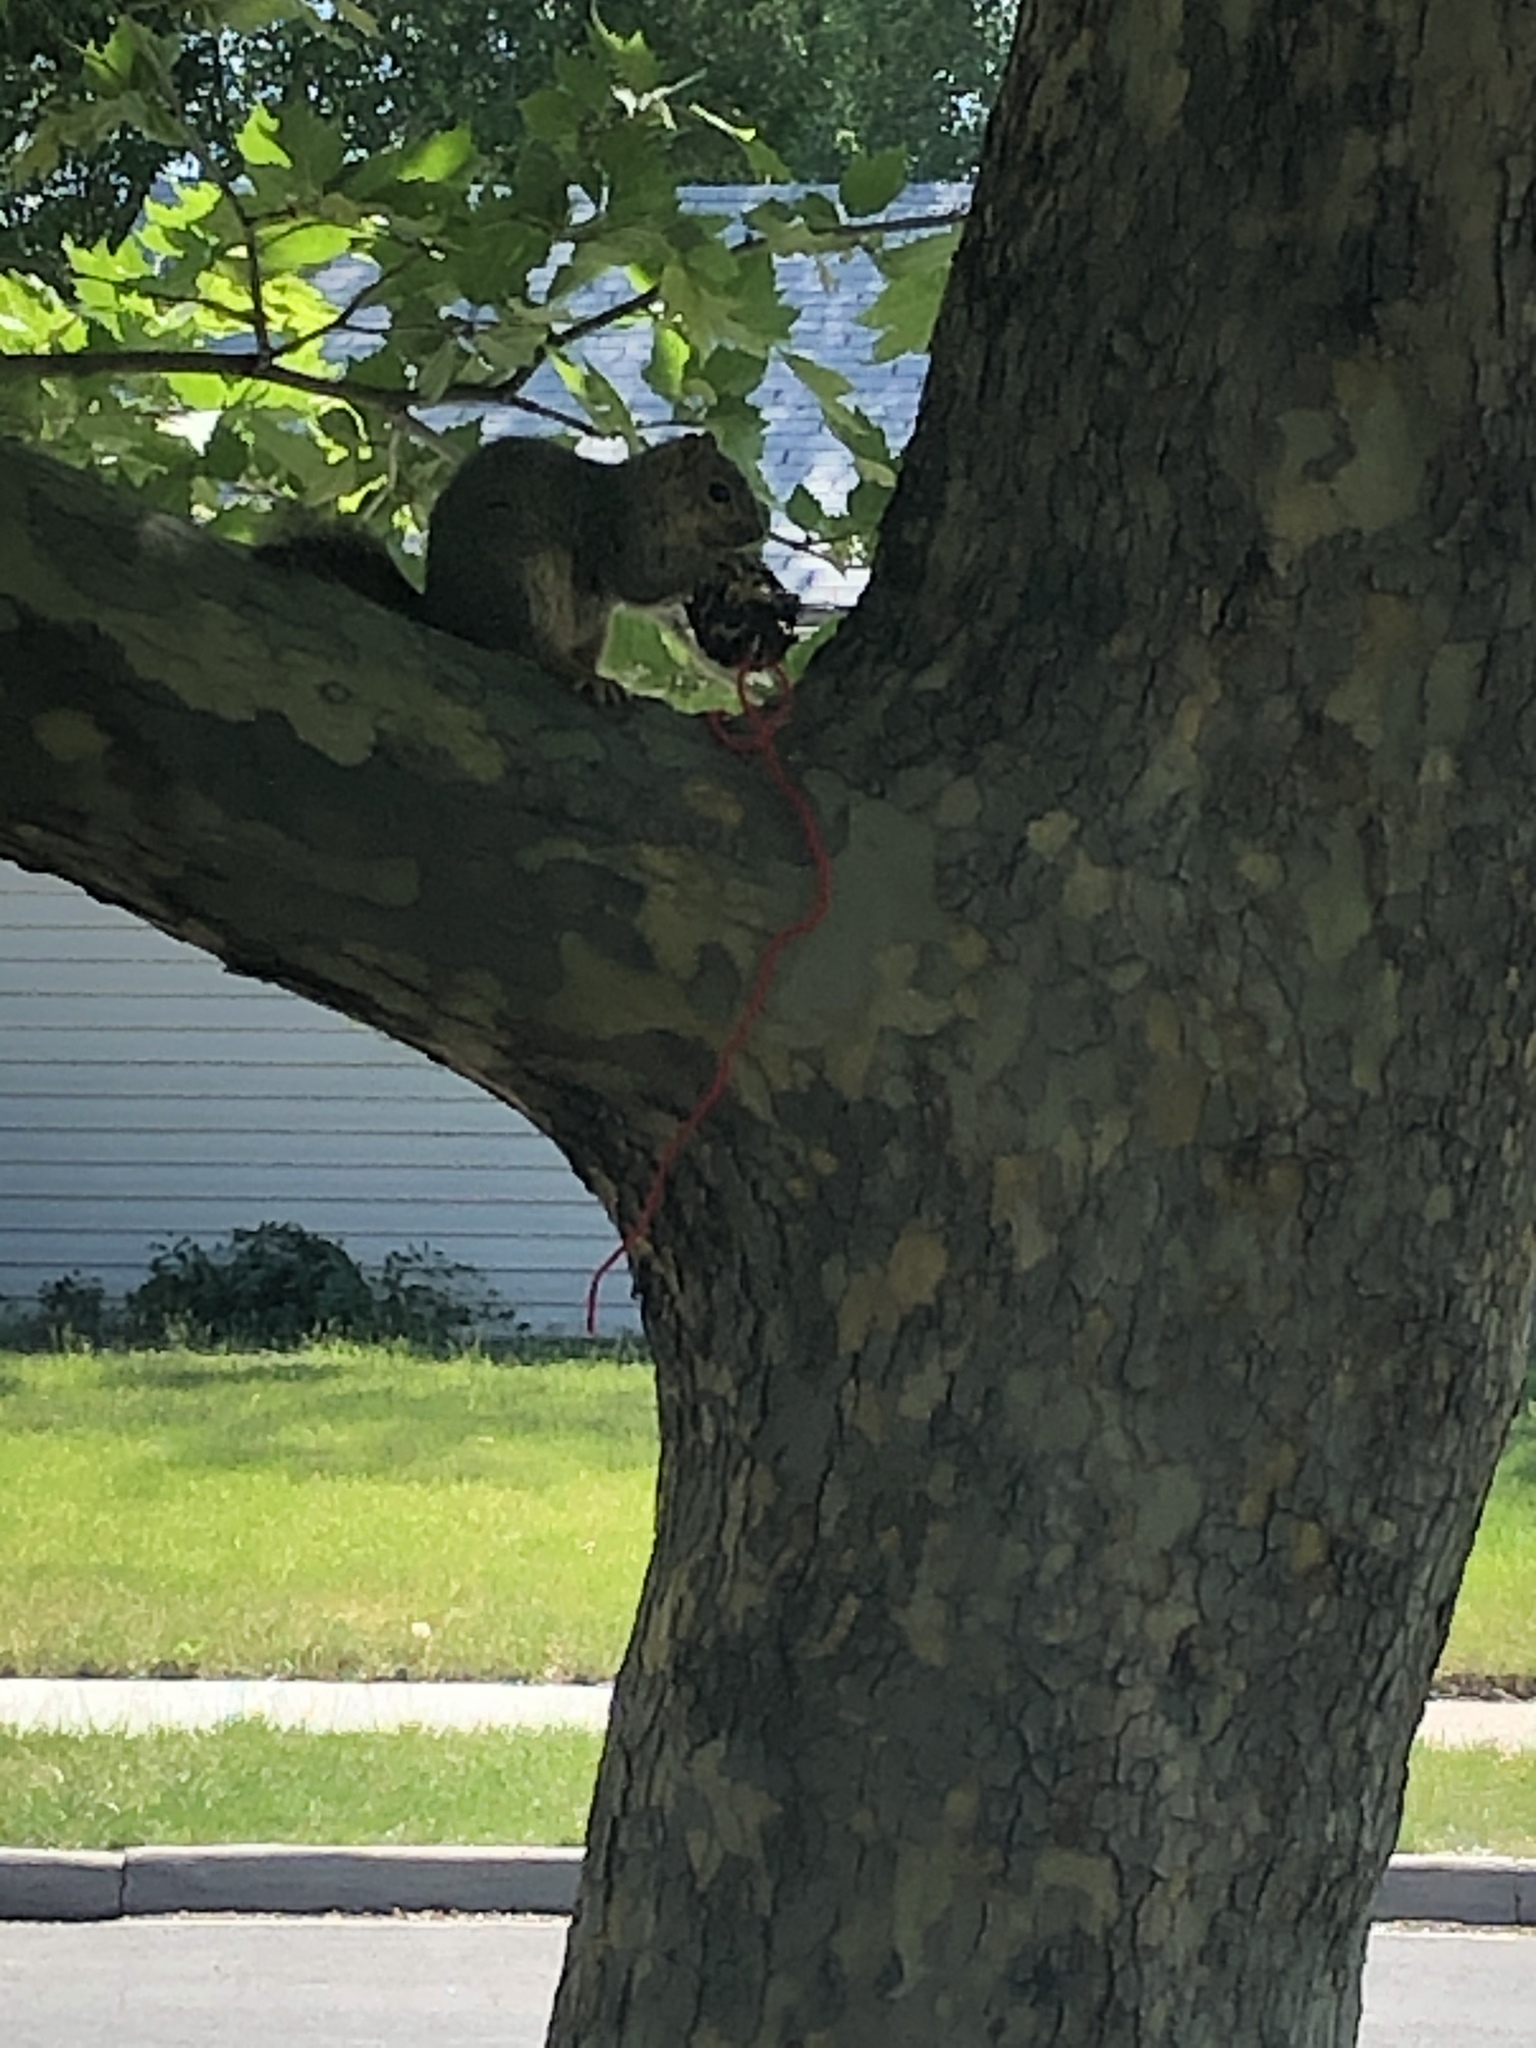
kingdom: Animalia
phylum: Chordata
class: Mammalia
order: Rodentia
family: Sciuridae
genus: Sciurus
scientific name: Sciurus niger
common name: Fox squirrel
